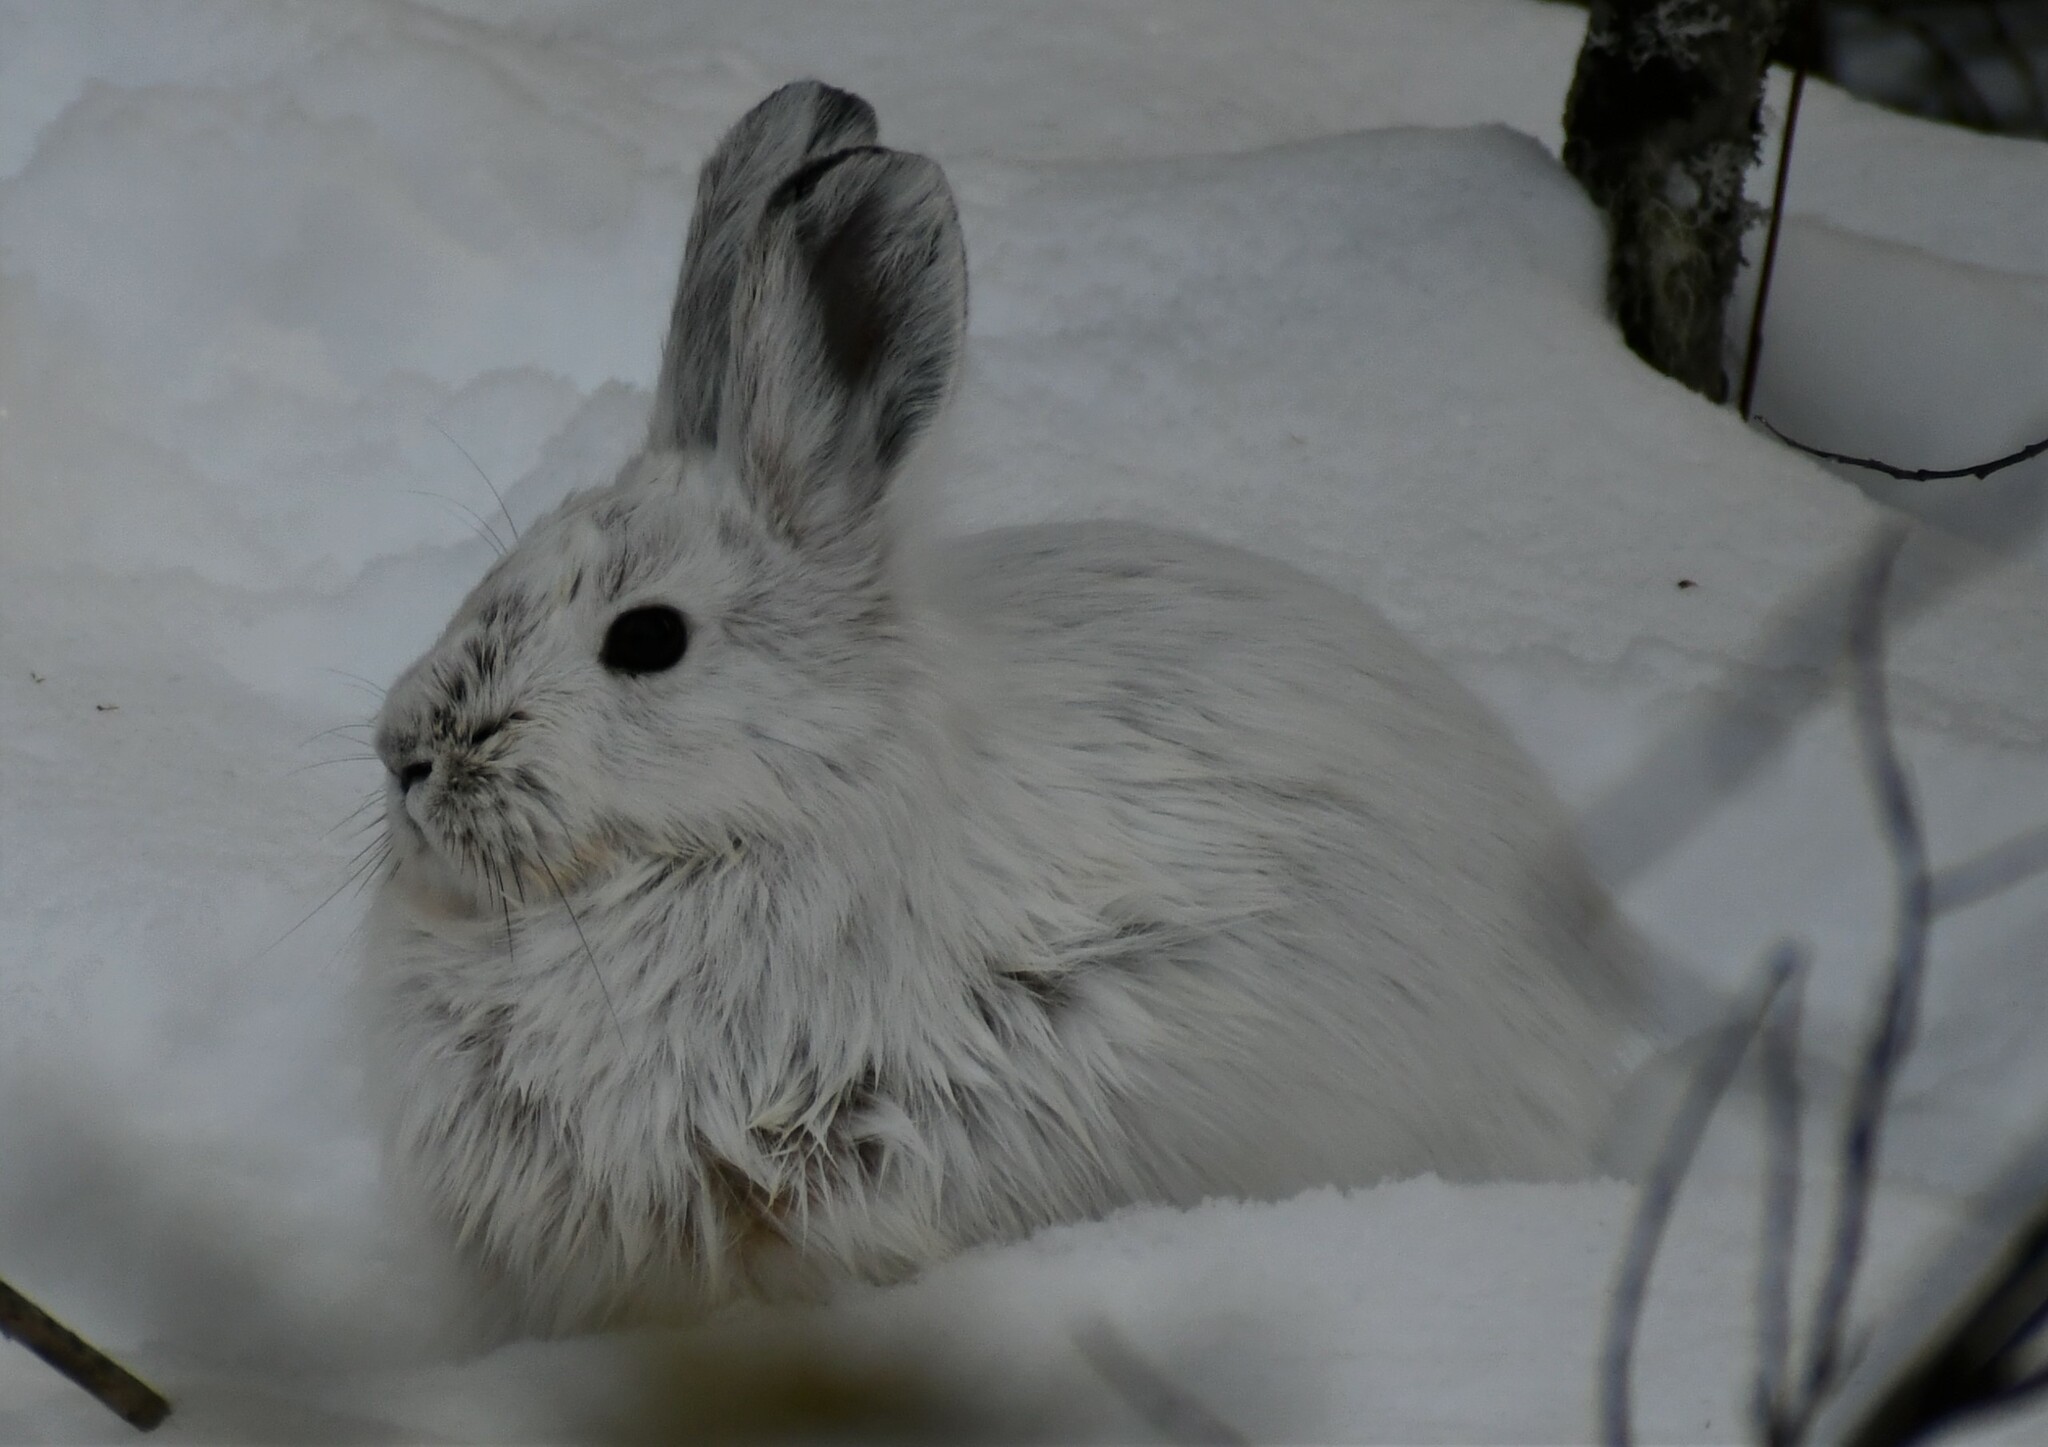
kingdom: Animalia
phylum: Chordata
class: Mammalia
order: Lagomorpha
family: Leporidae
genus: Lepus
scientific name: Lepus americanus
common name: Snowshoe hare
